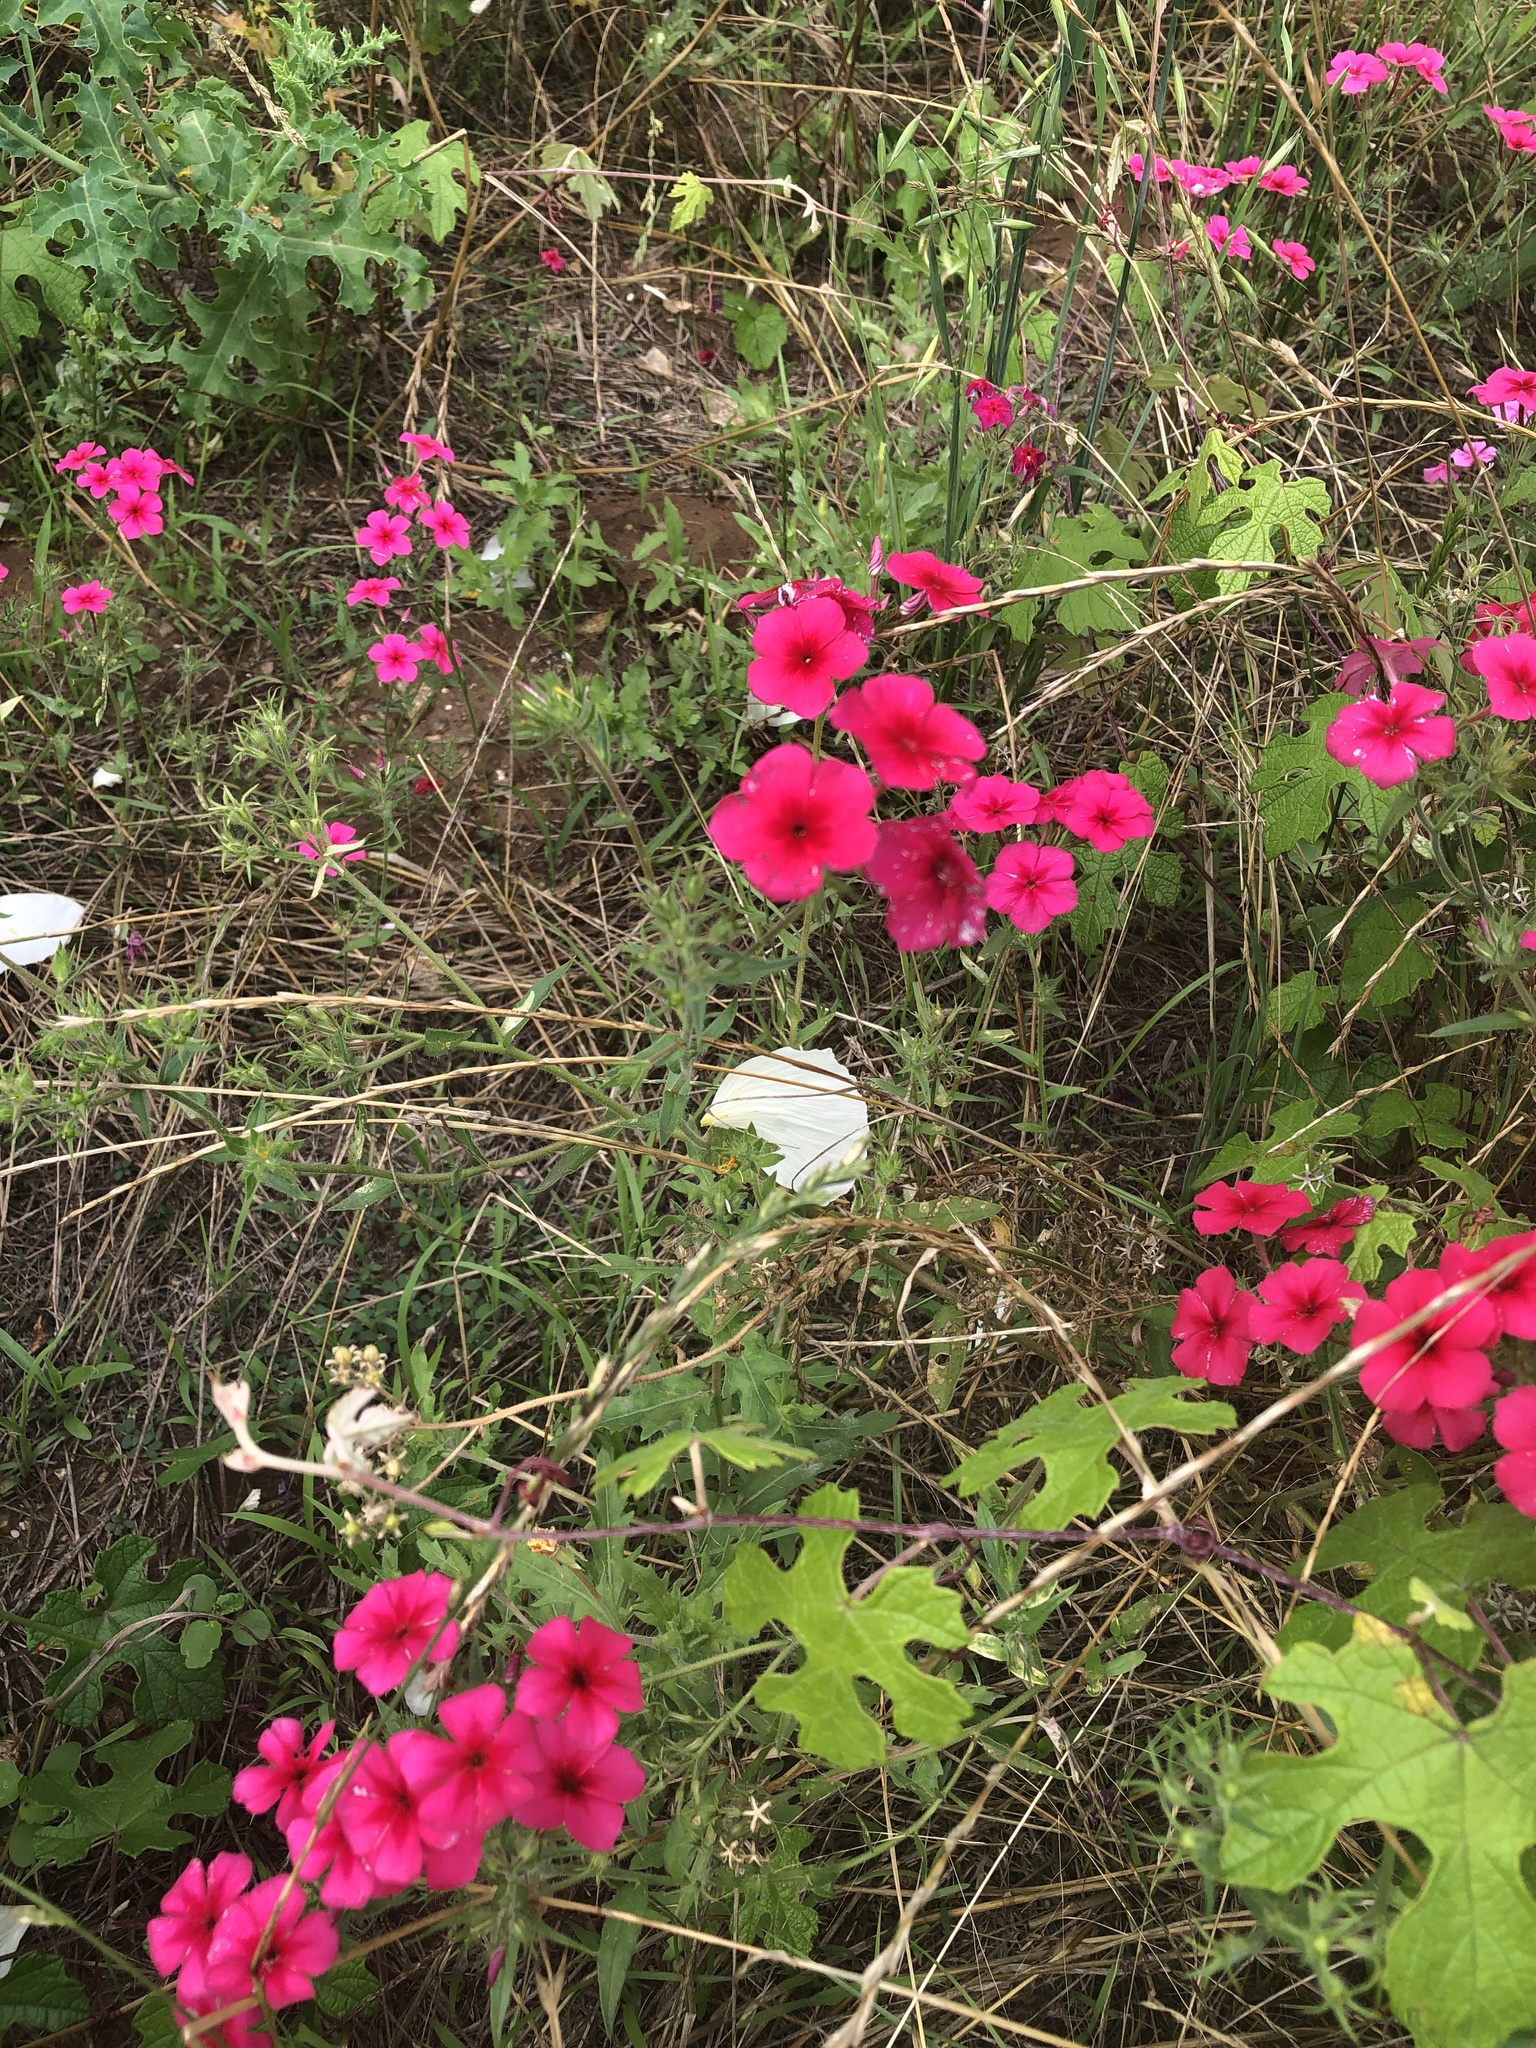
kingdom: Plantae
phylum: Tracheophyta
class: Magnoliopsida
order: Ericales
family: Polemoniaceae
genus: Phlox
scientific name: Phlox drummondii
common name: Drummond's phlox
